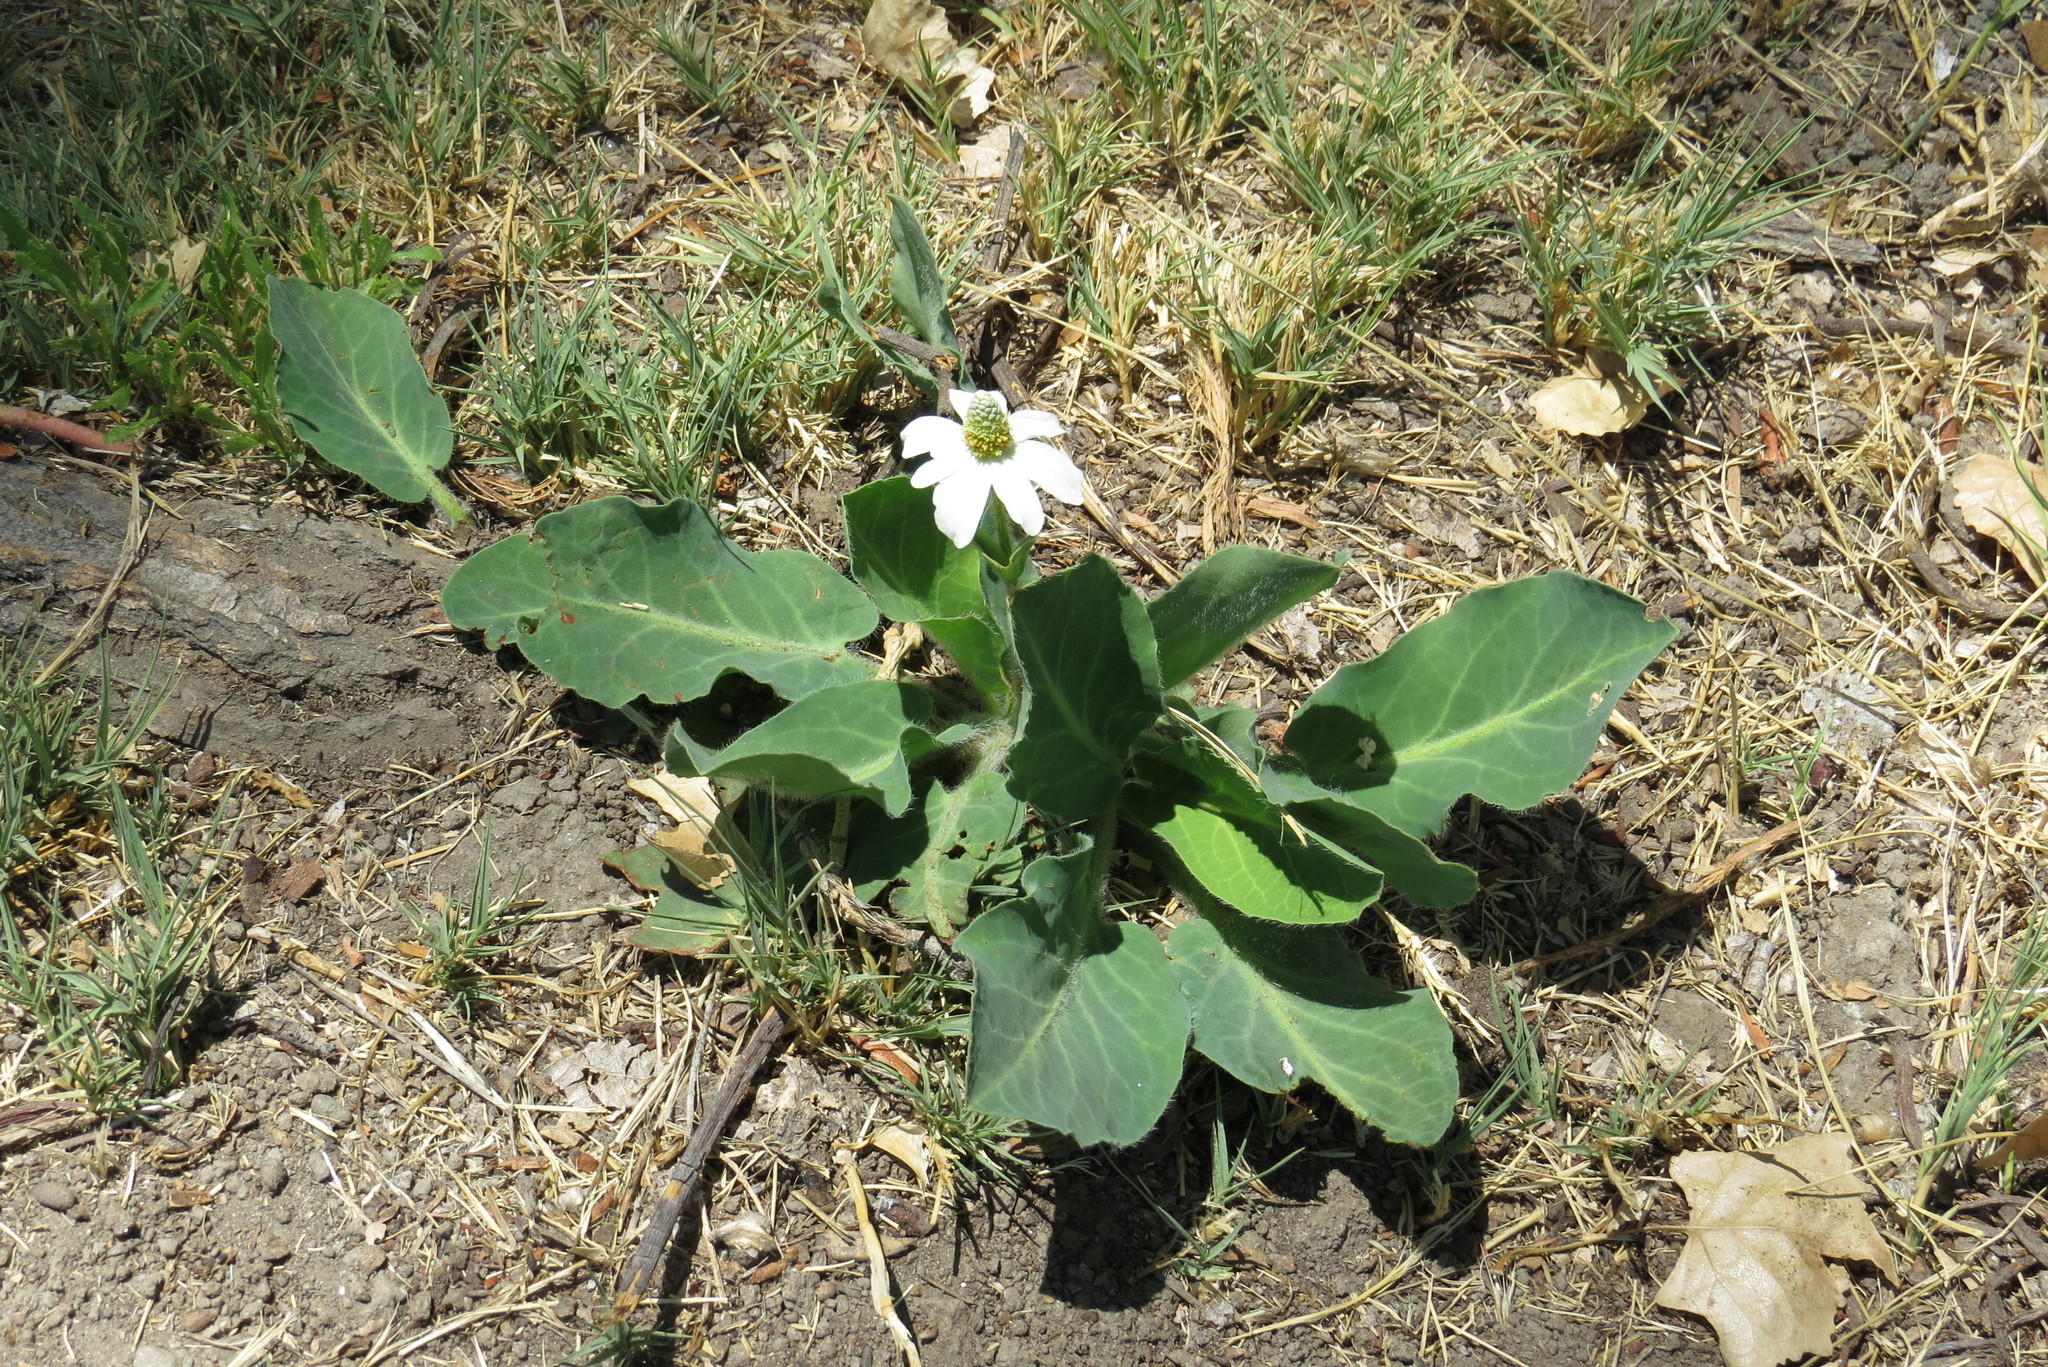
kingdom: Plantae
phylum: Tracheophyta
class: Magnoliopsida
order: Piperales
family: Saururaceae
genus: Anemopsis
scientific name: Anemopsis californica
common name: Apache-beads
